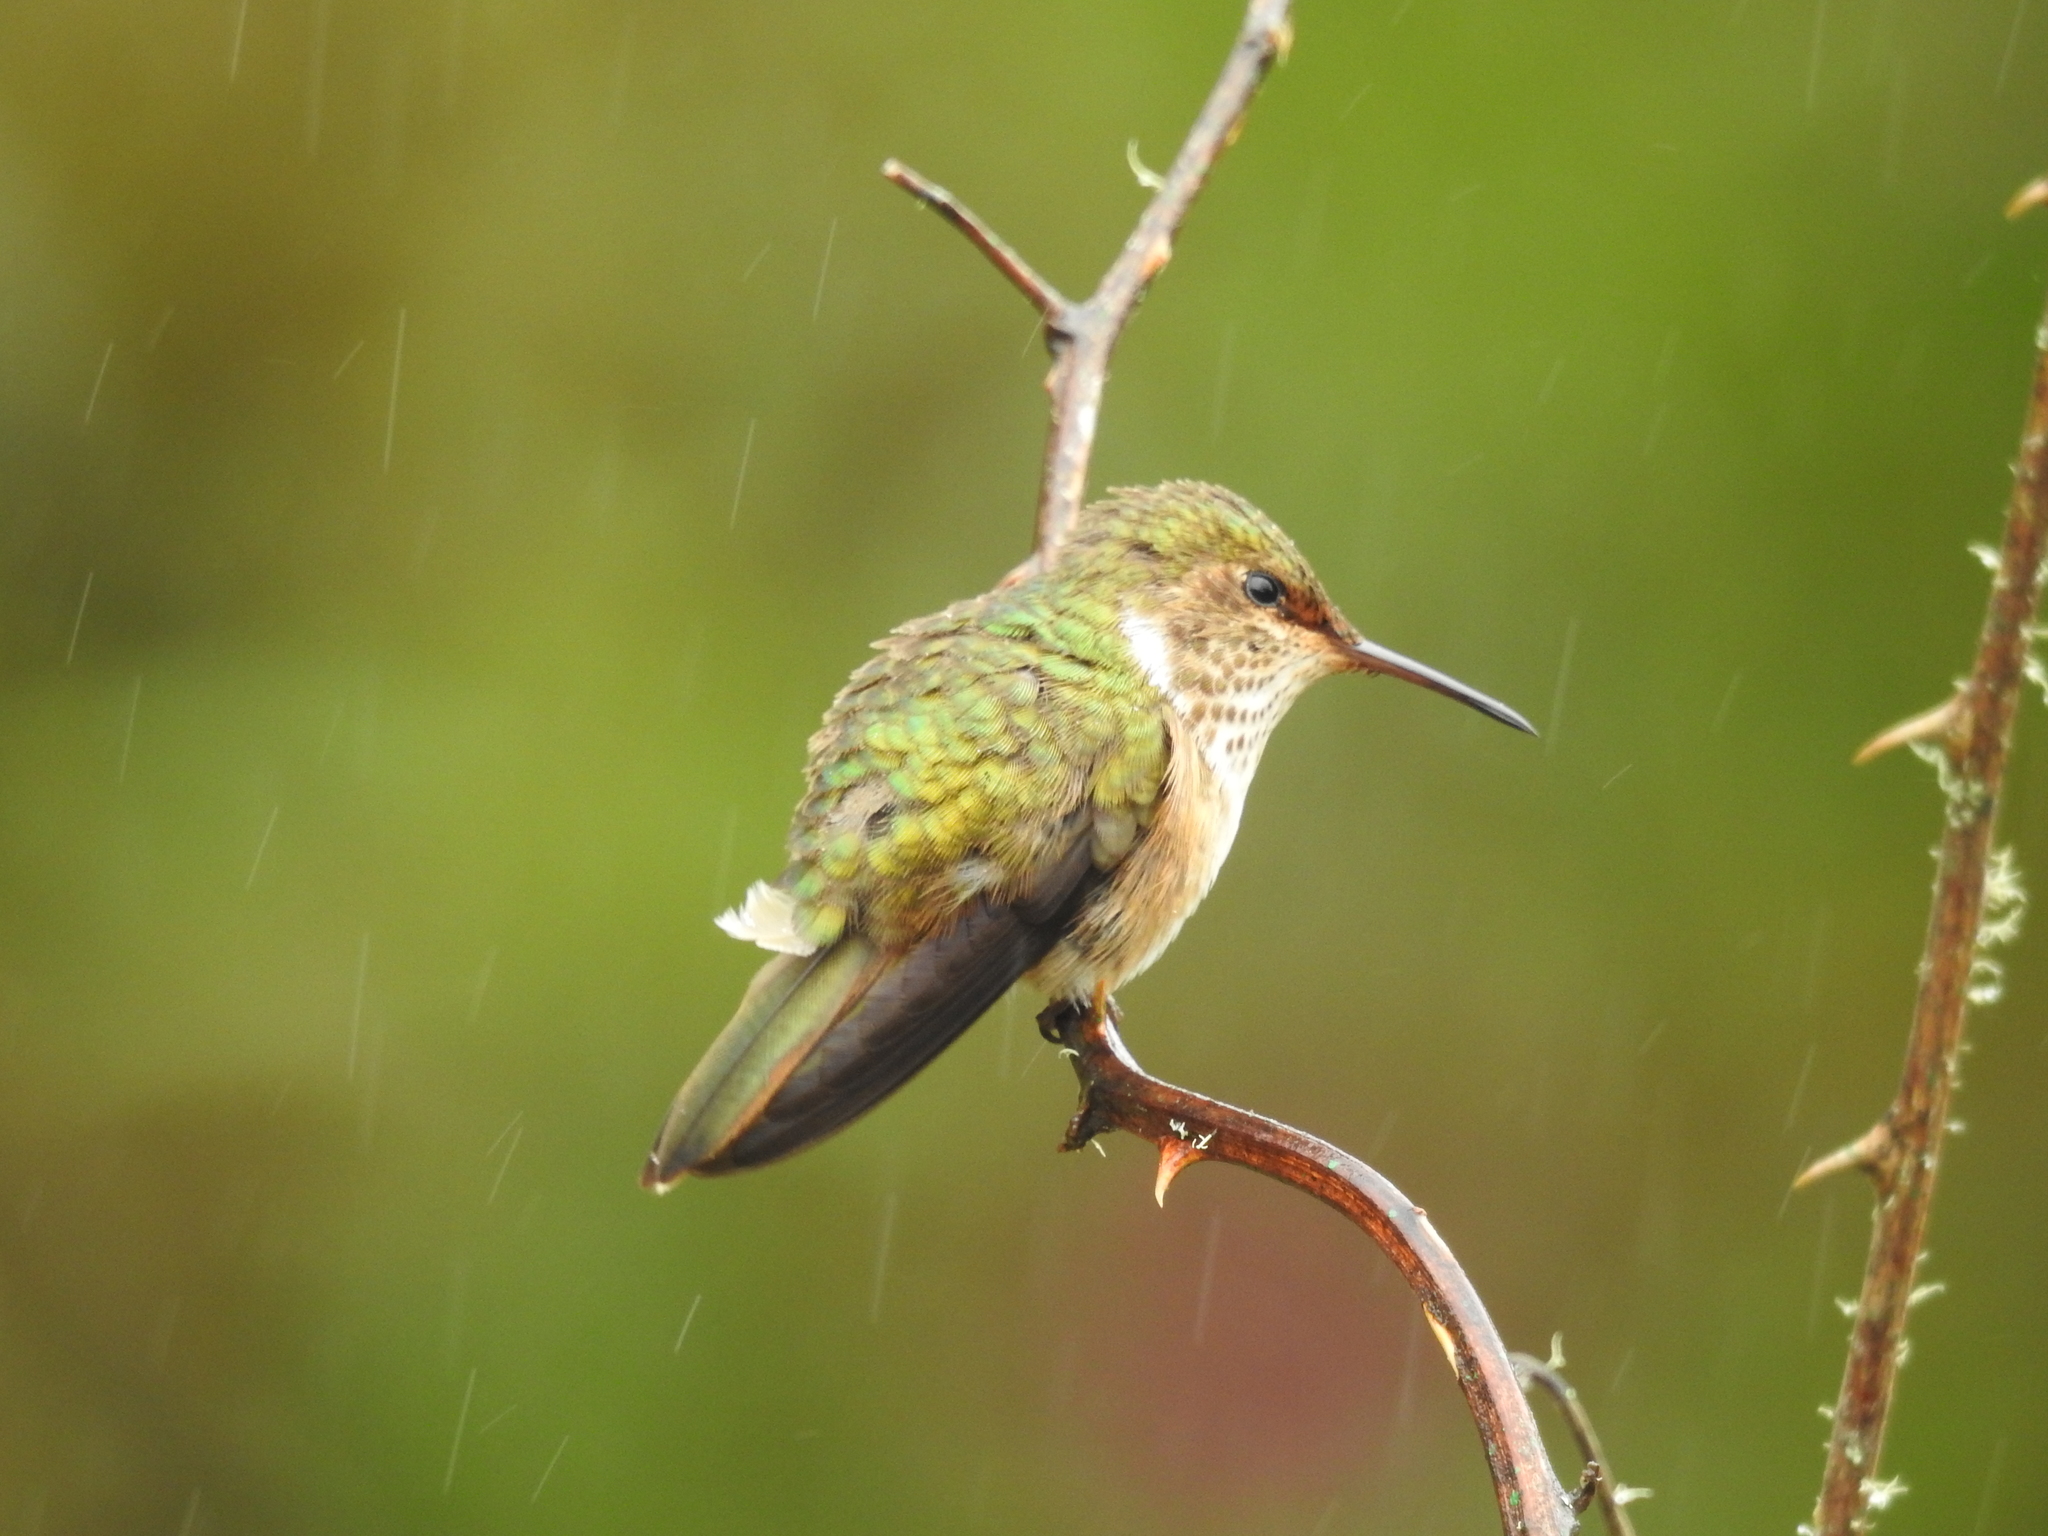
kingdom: Animalia
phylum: Chordata
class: Aves
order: Apodiformes
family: Trochilidae
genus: Selasphorus
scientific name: Selasphorus flammula
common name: Volcano hummingbird
